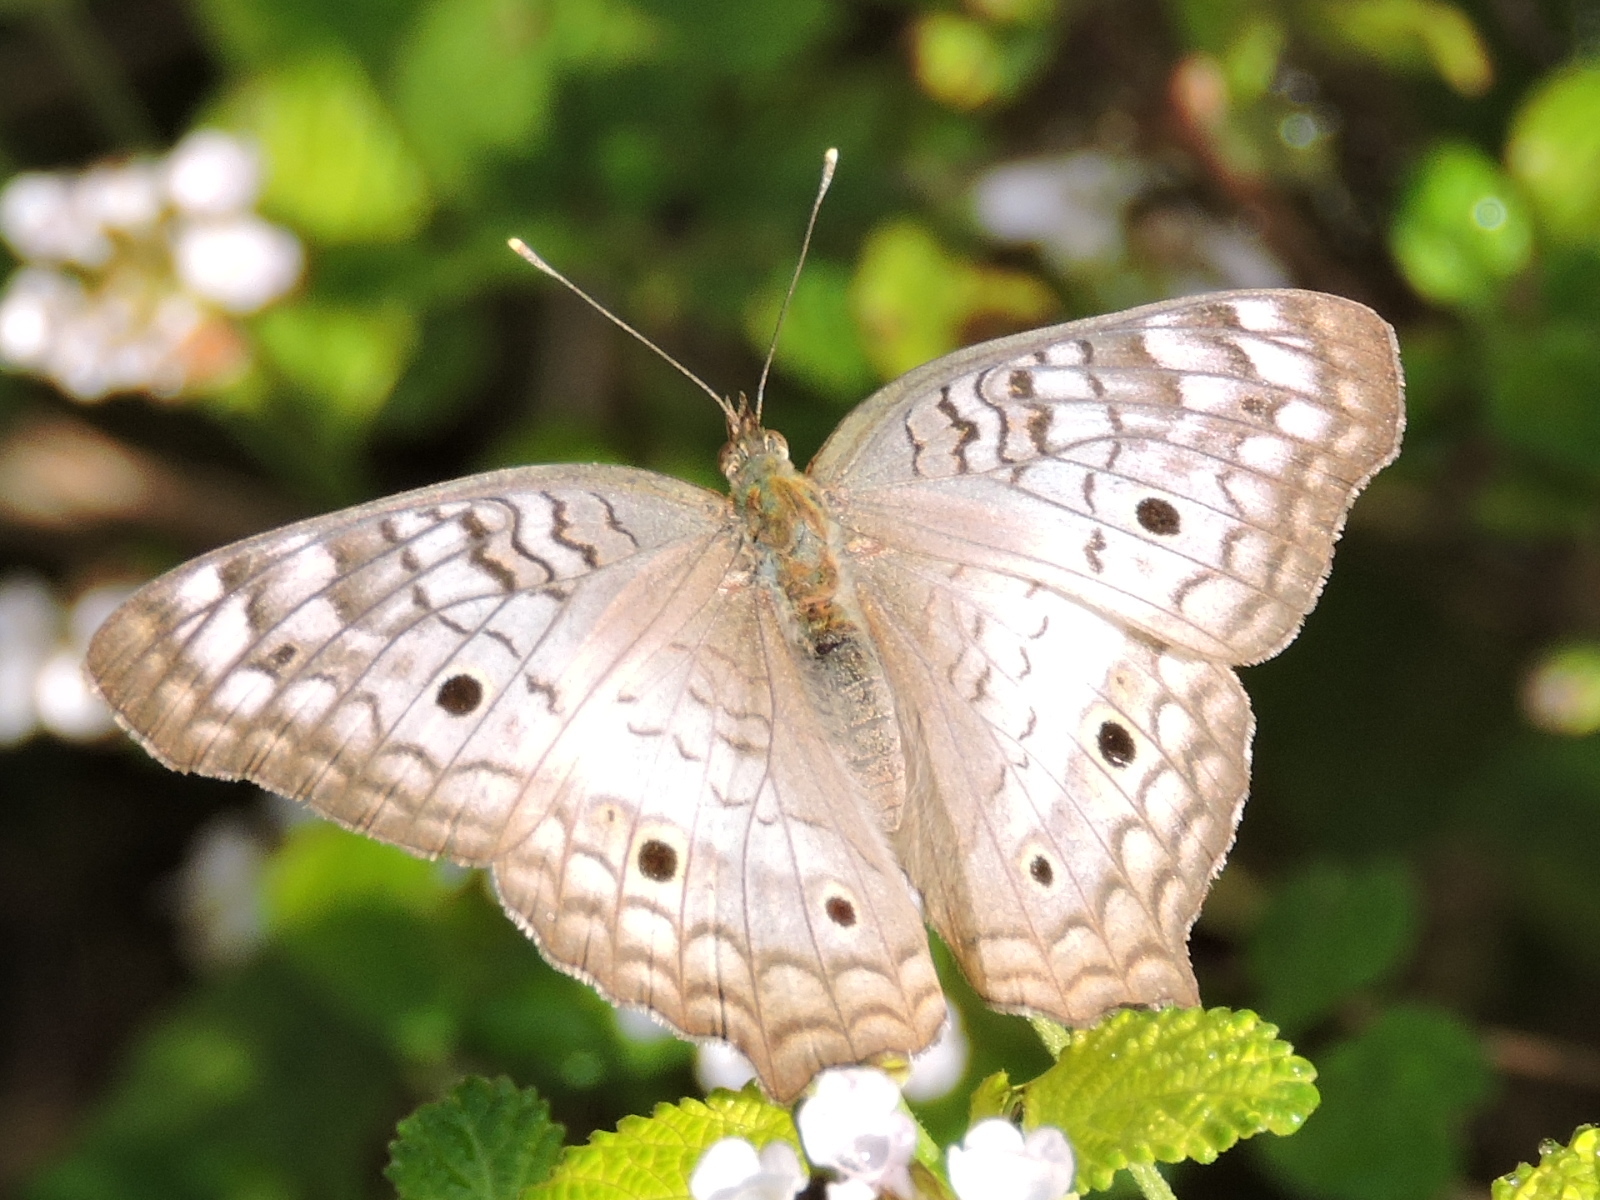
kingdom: Animalia
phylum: Arthropoda
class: Insecta
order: Lepidoptera
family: Nymphalidae
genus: Anartia
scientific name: Anartia jatrophae
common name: White peacock
